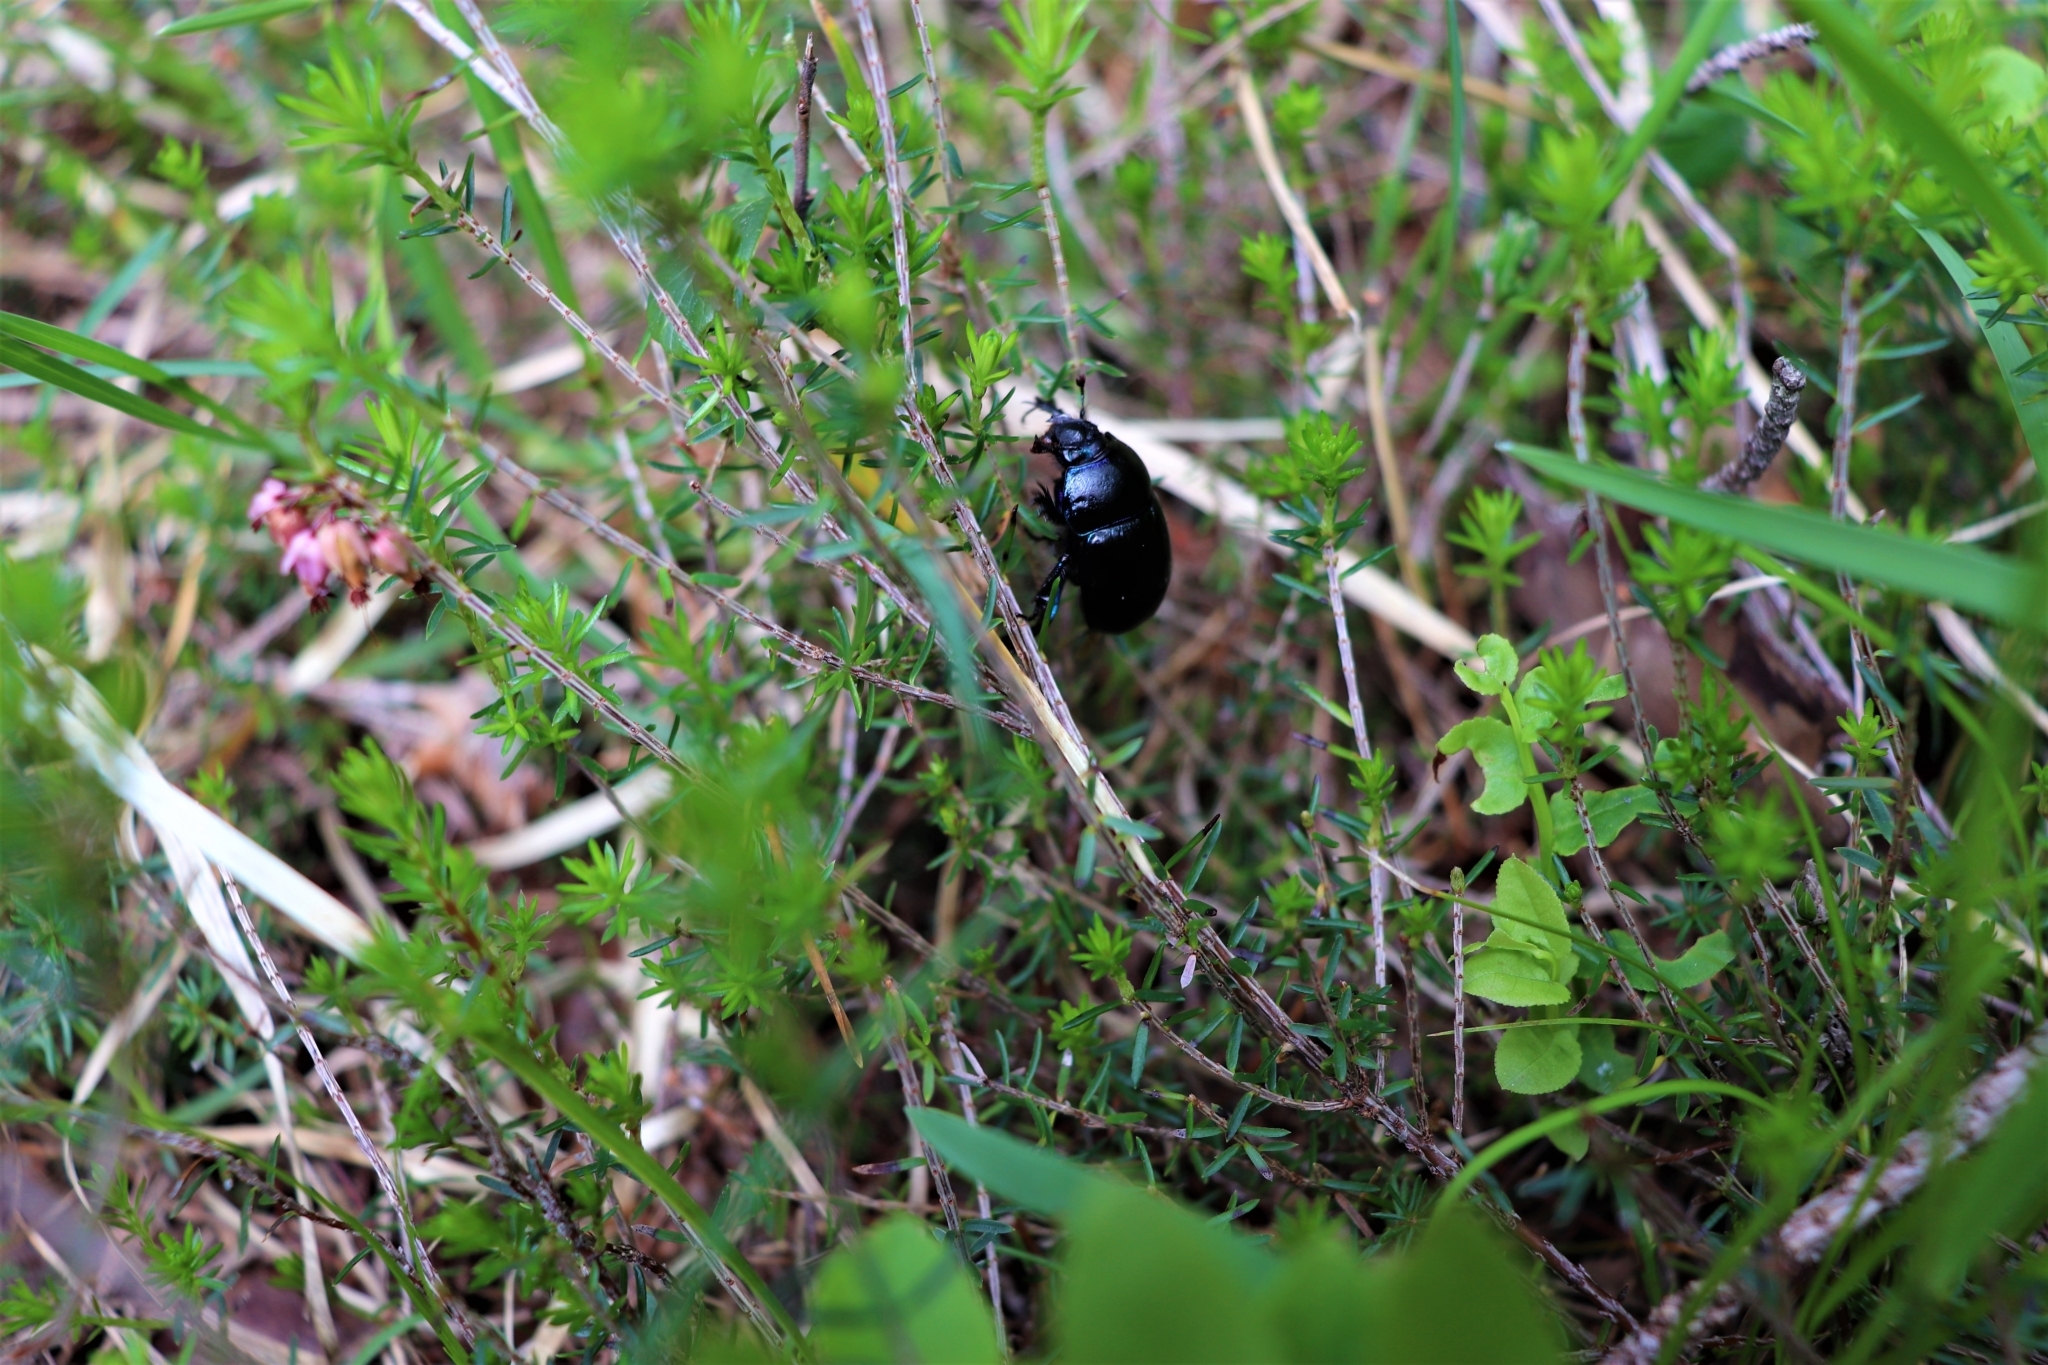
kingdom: Animalia
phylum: Arthropoda
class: Insecta
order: Coleoptera
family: Geotrupidae
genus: Anoplotrupes
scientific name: Anoplotrupes stercorosus
